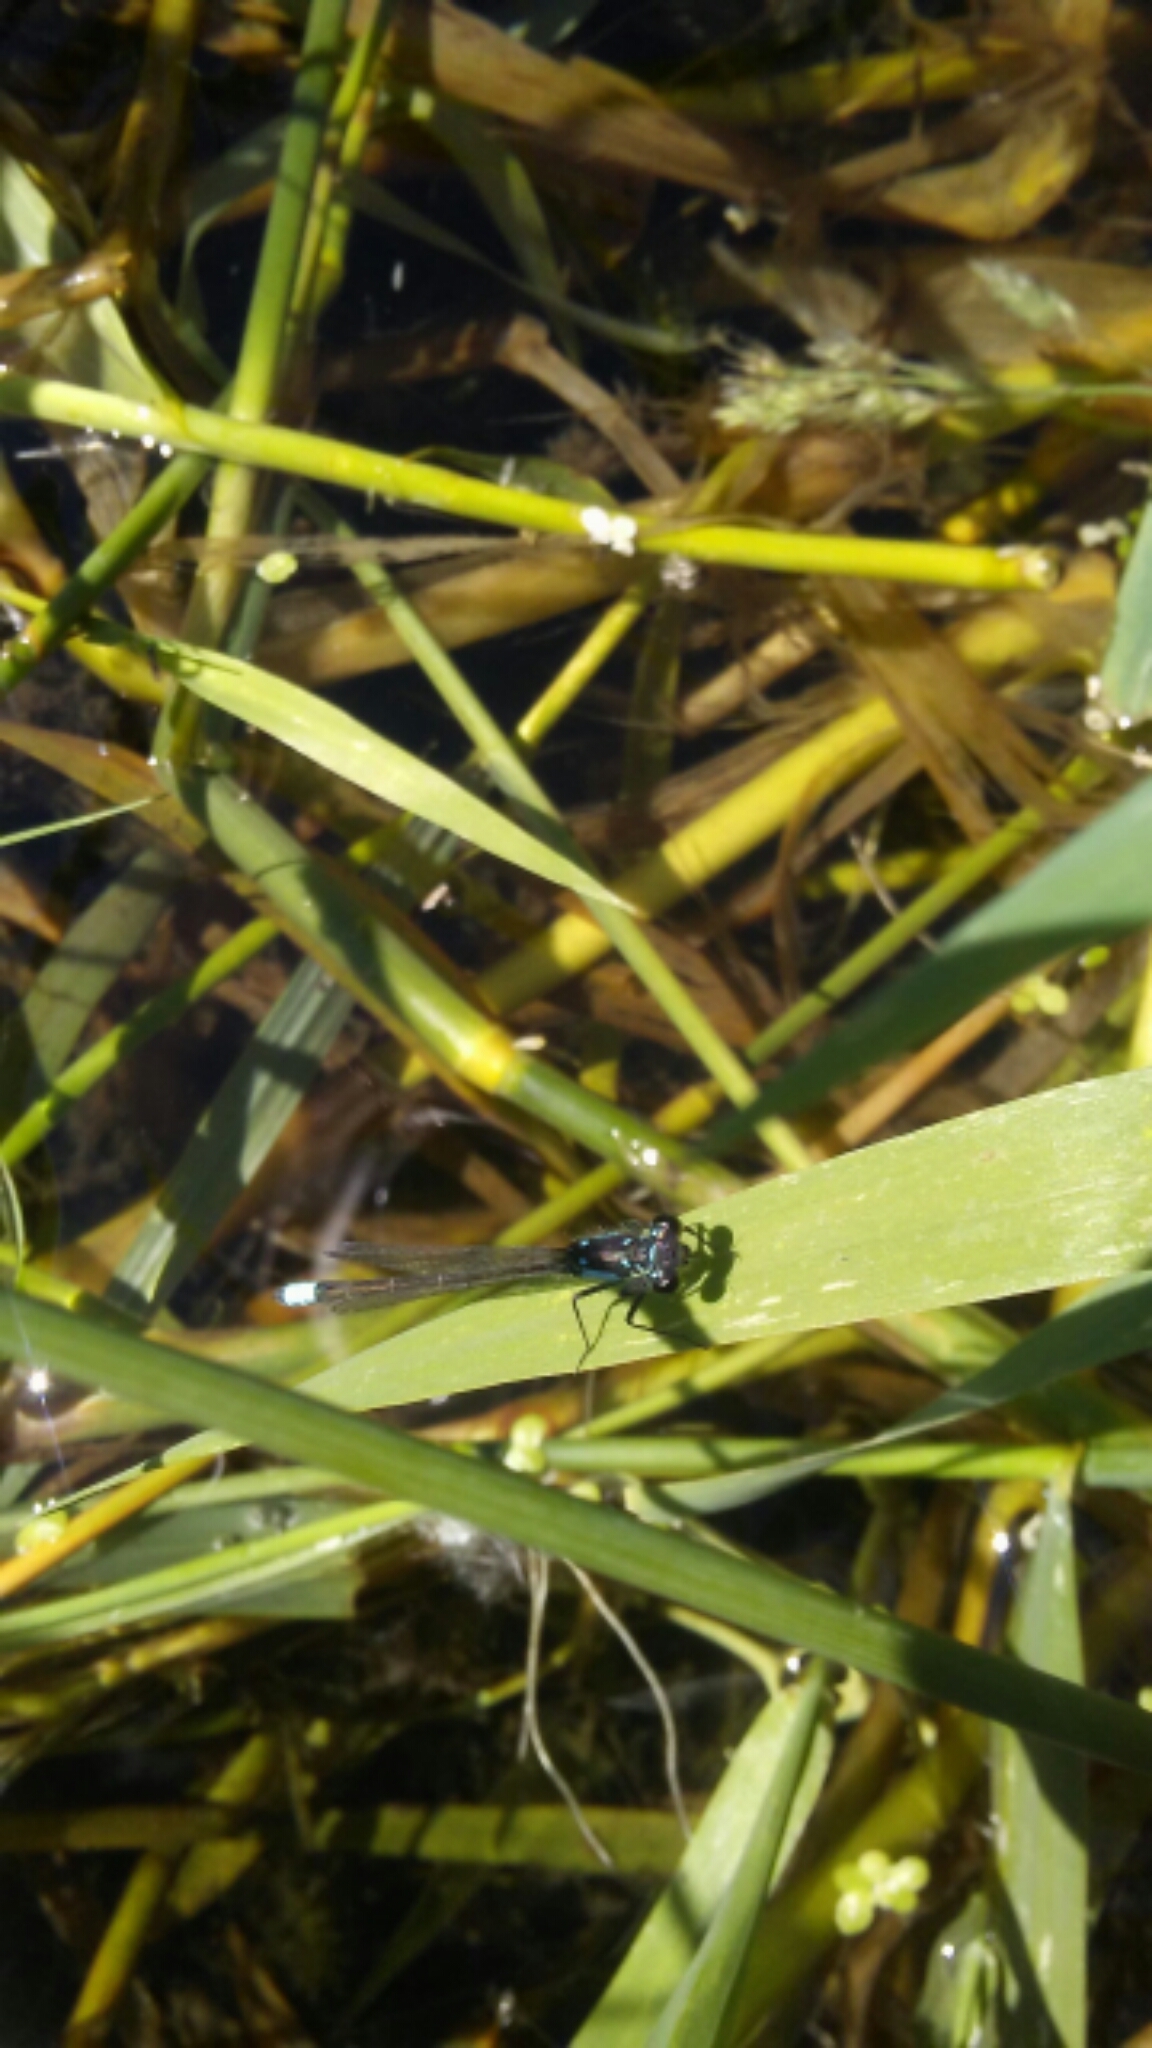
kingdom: Animalia
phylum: Arthropoda
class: Insecta
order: Odonata
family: Coenagrionidae
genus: Ischnura
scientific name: Ischnura cervula
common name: Pacific forktail
